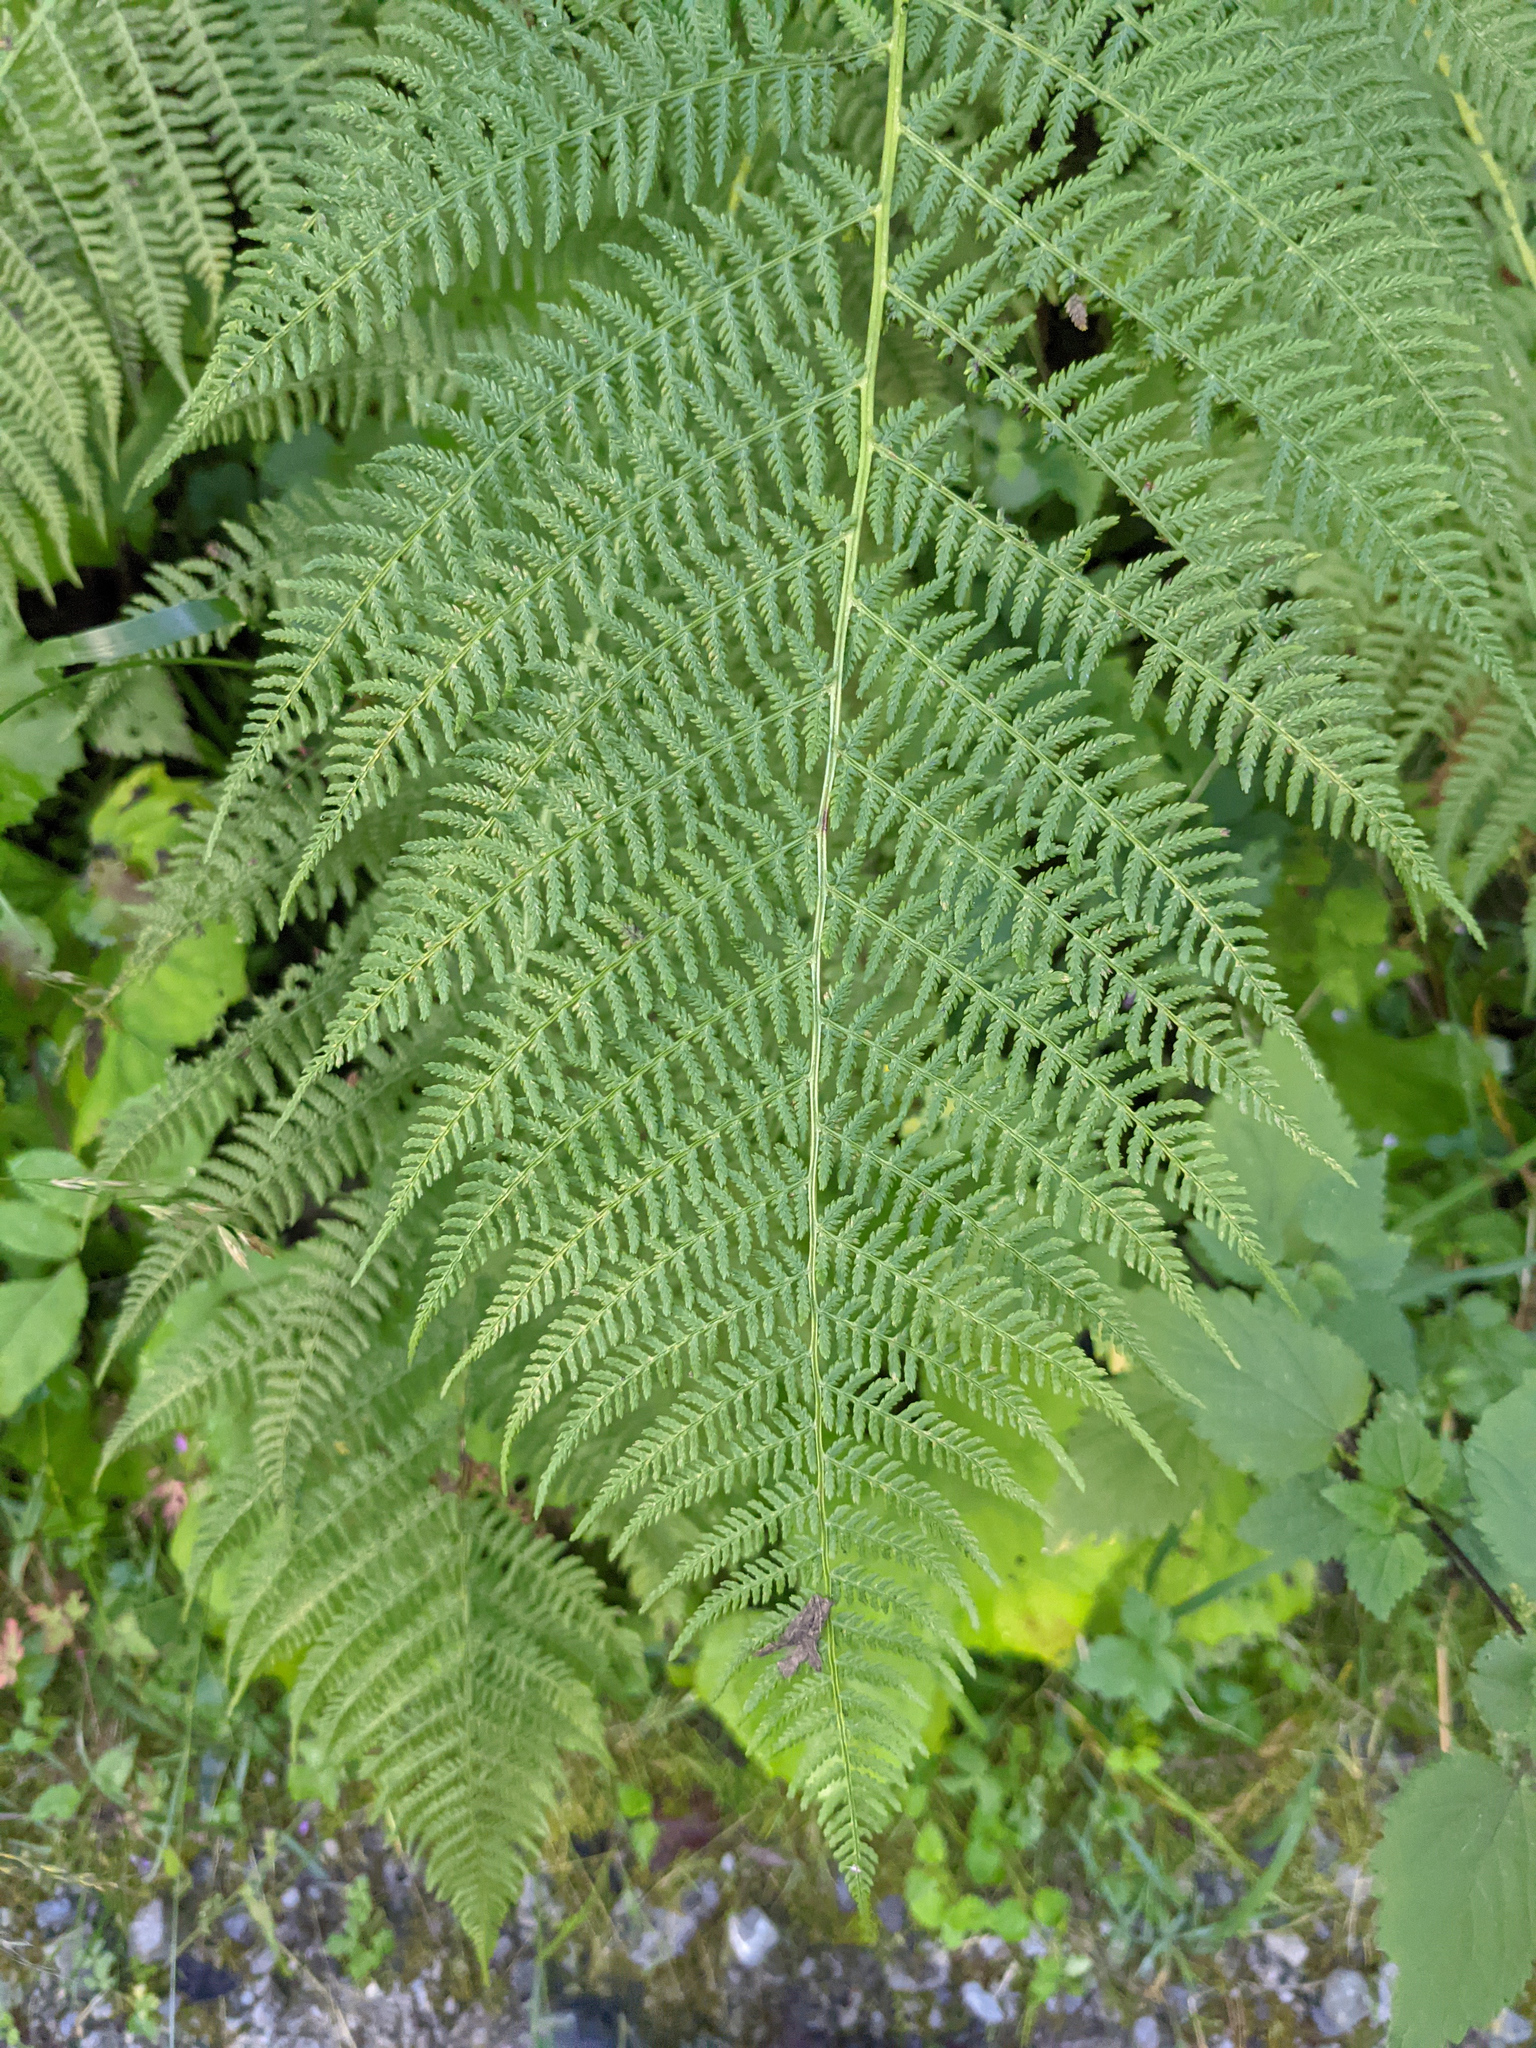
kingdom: Plantae
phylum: Tracheophyta
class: Polypodiopsida
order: Polypodiales
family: Athyriaceae
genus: Athyrium
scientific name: Athyrium filix-femina
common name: Lady fern
